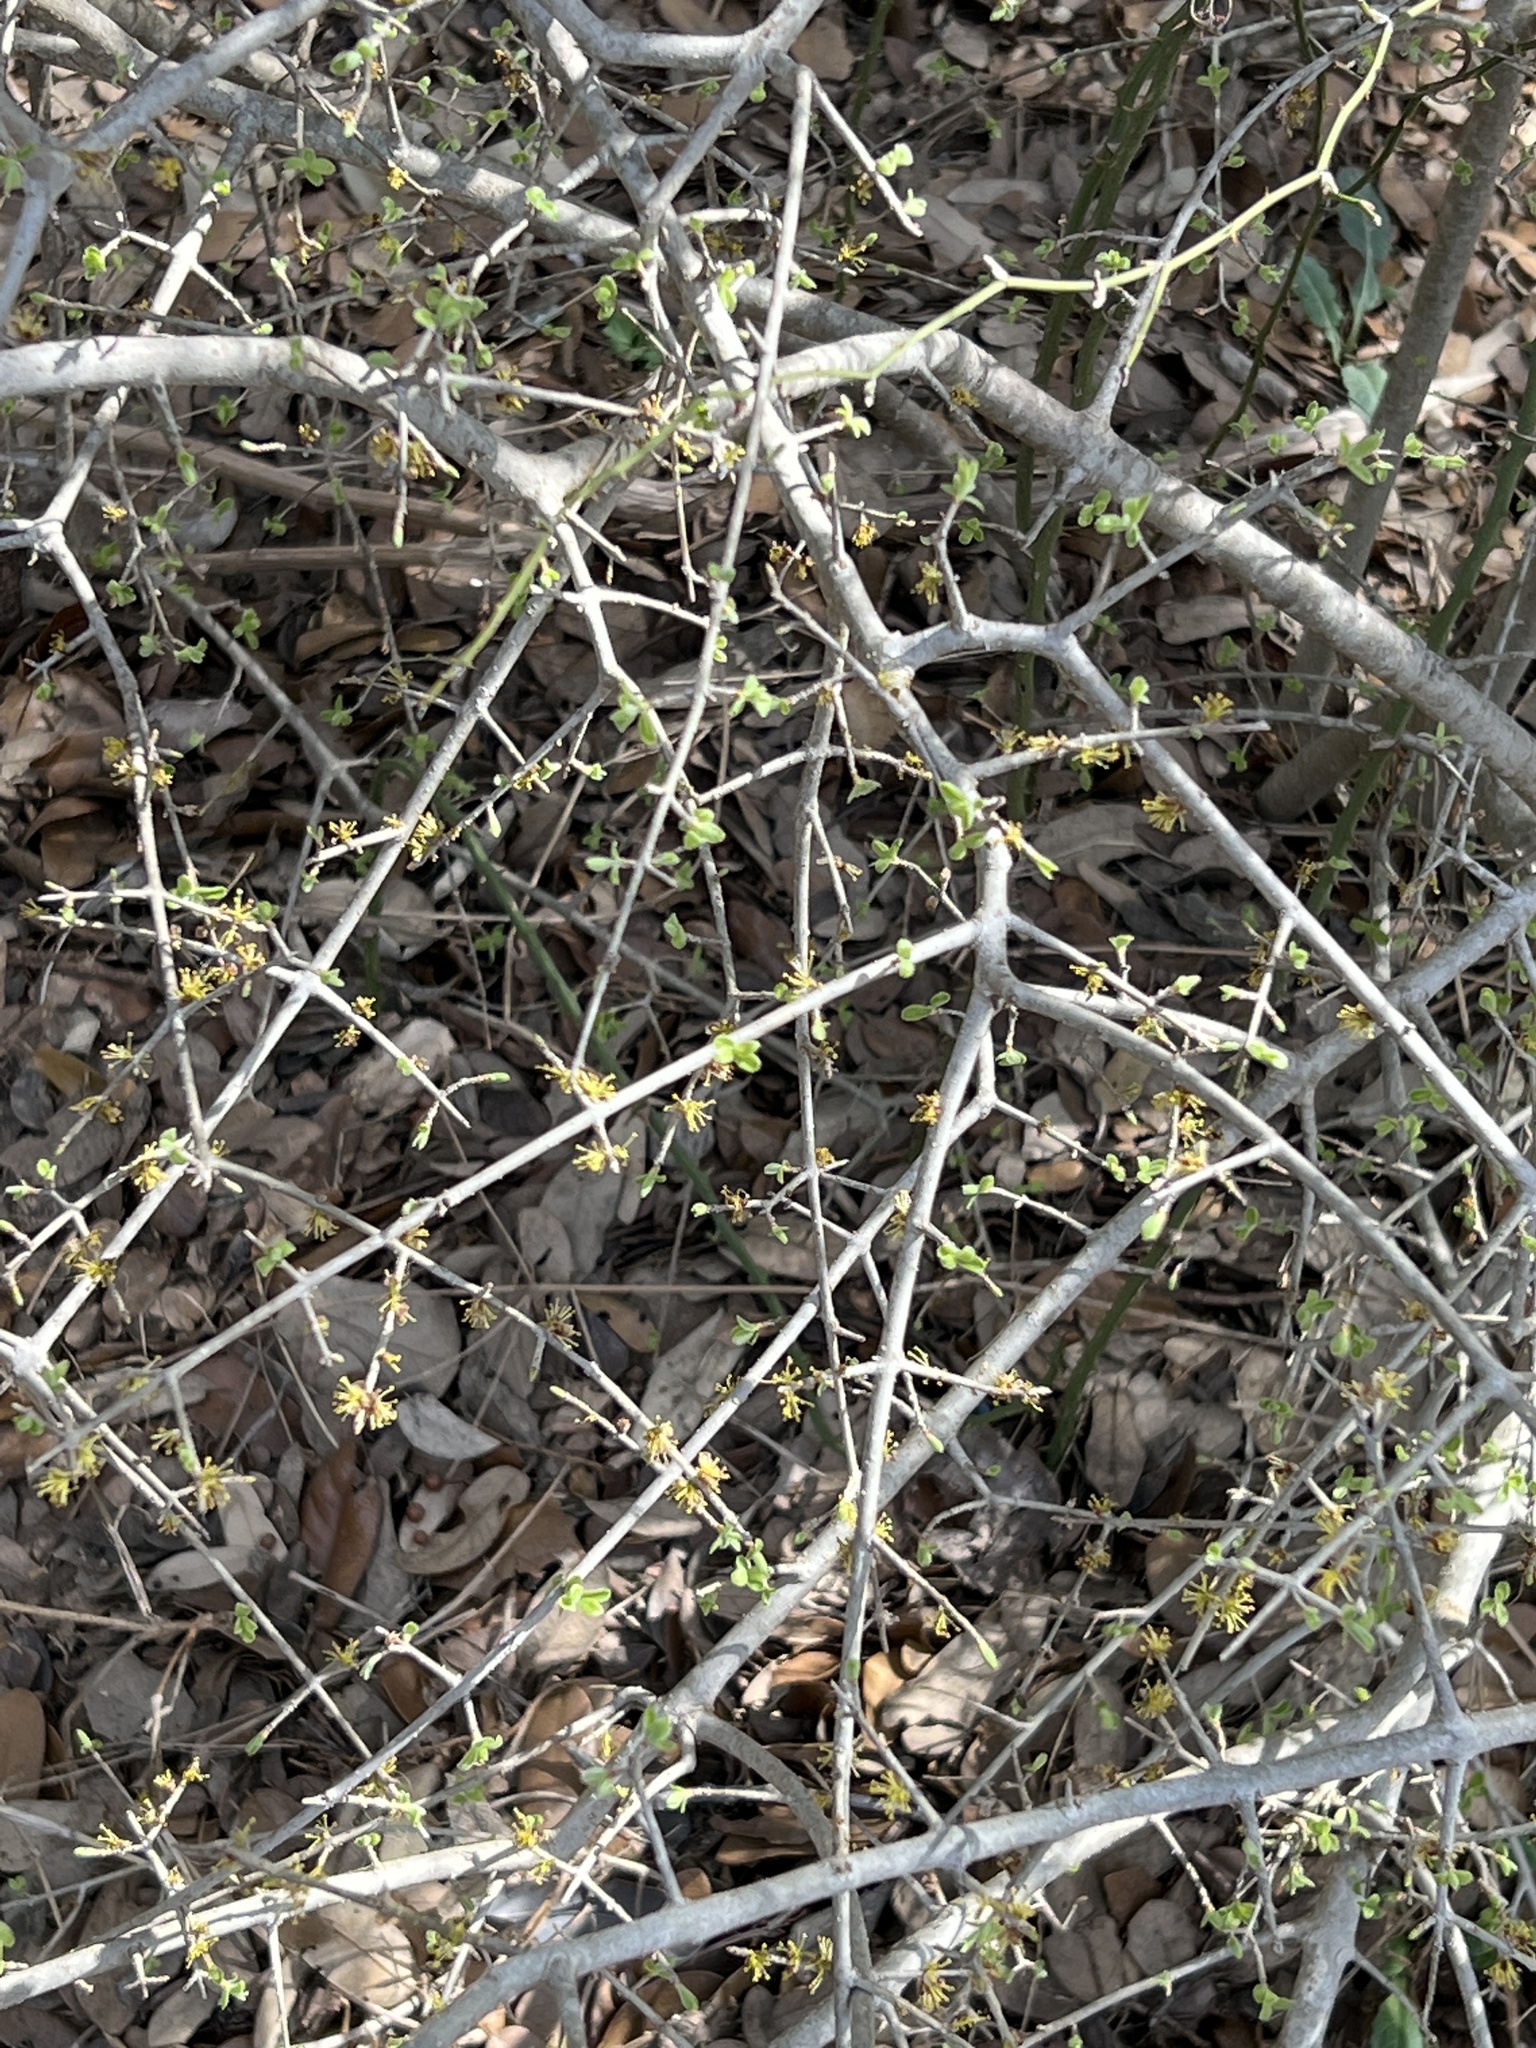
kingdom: Plantae
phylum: Tracheophyta
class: Magnoliopsida
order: Lamiales
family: Oleaceae
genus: Forestiera
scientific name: Forestiera pubescens
